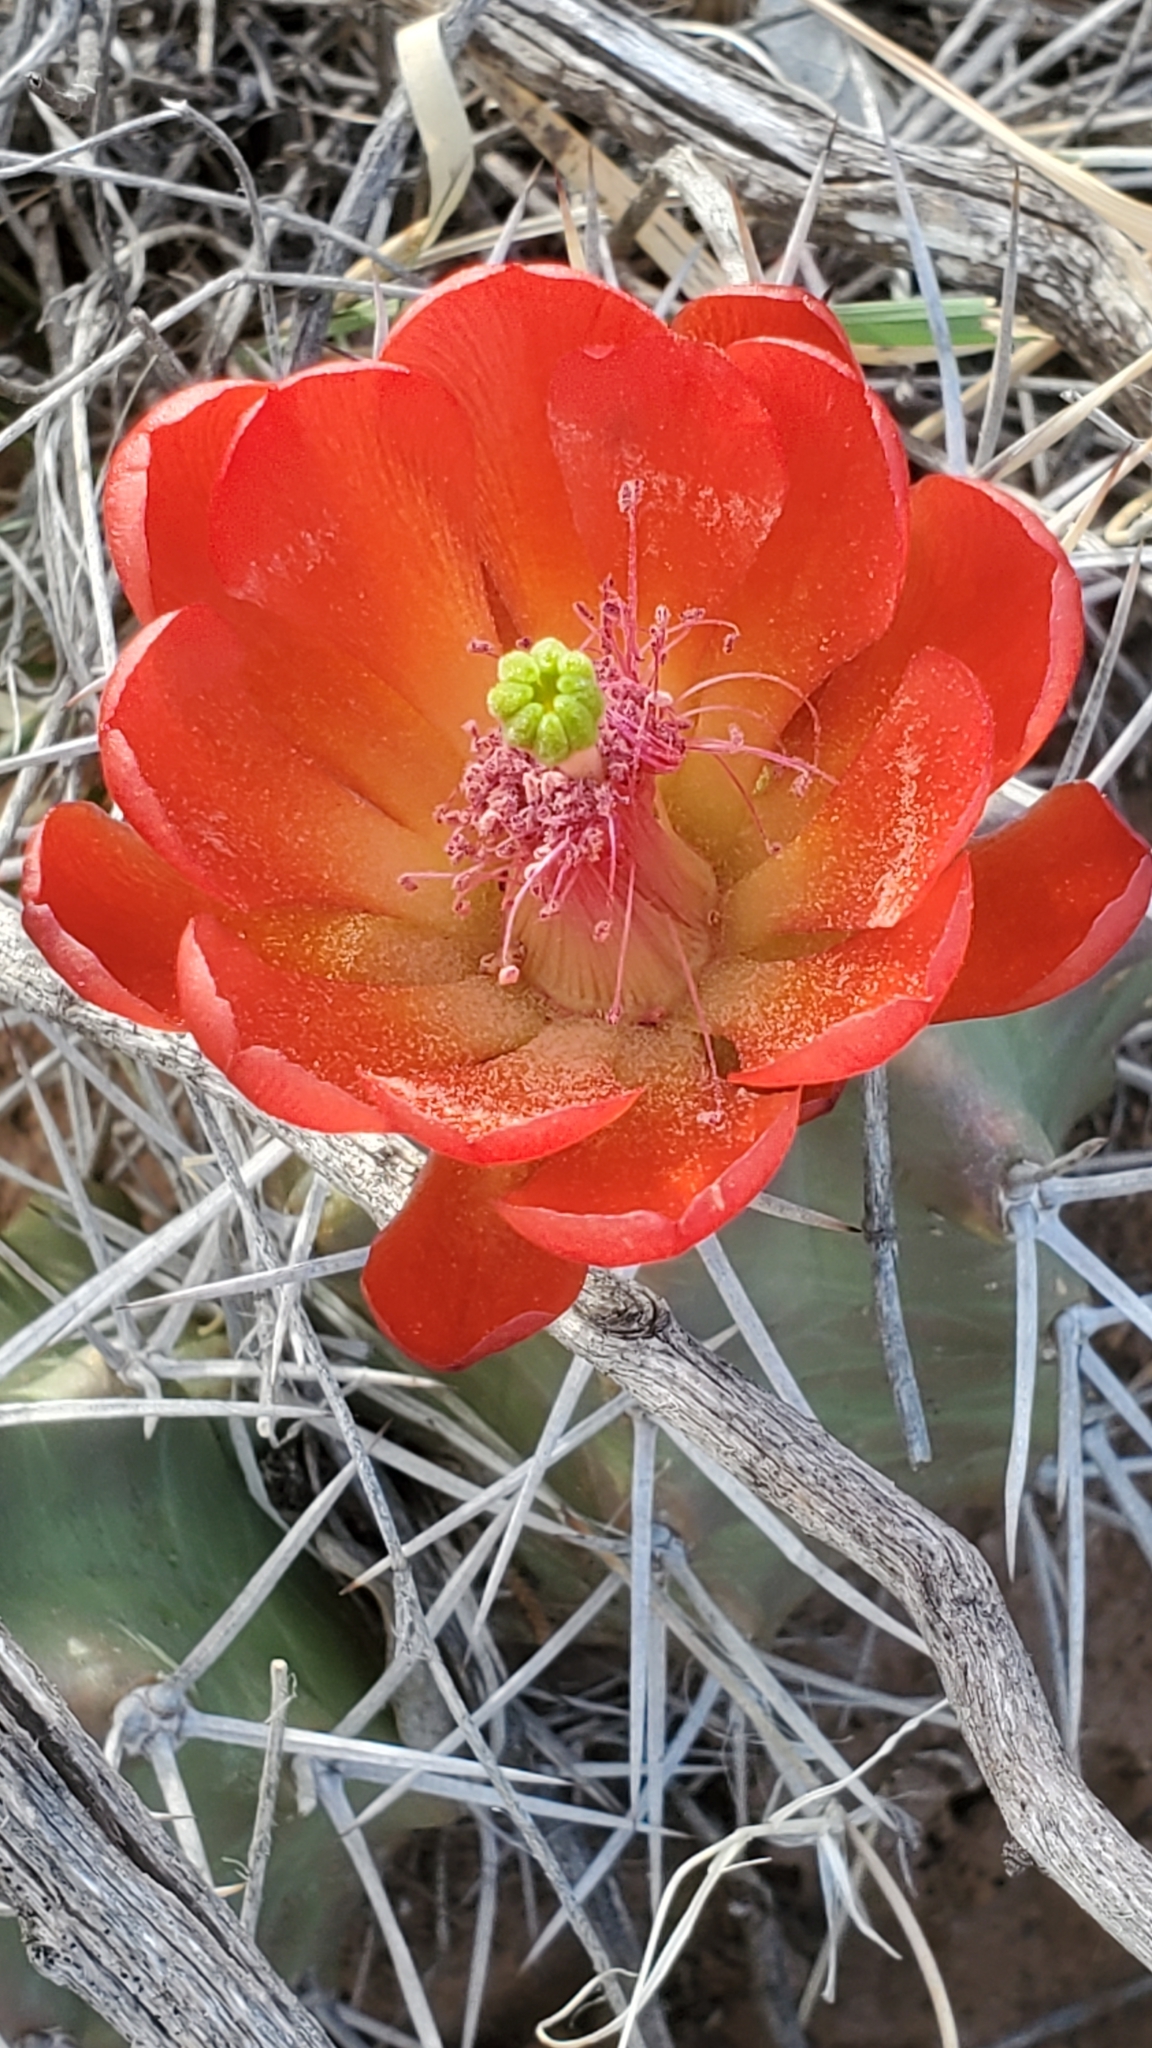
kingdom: Plantae
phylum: Tracheophyta
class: Magnoliopsida
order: Caryophyllales
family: Cactaceae
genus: Echinocereus
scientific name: Echinocereus triglochidiatus
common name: Claretcup hedgehog
